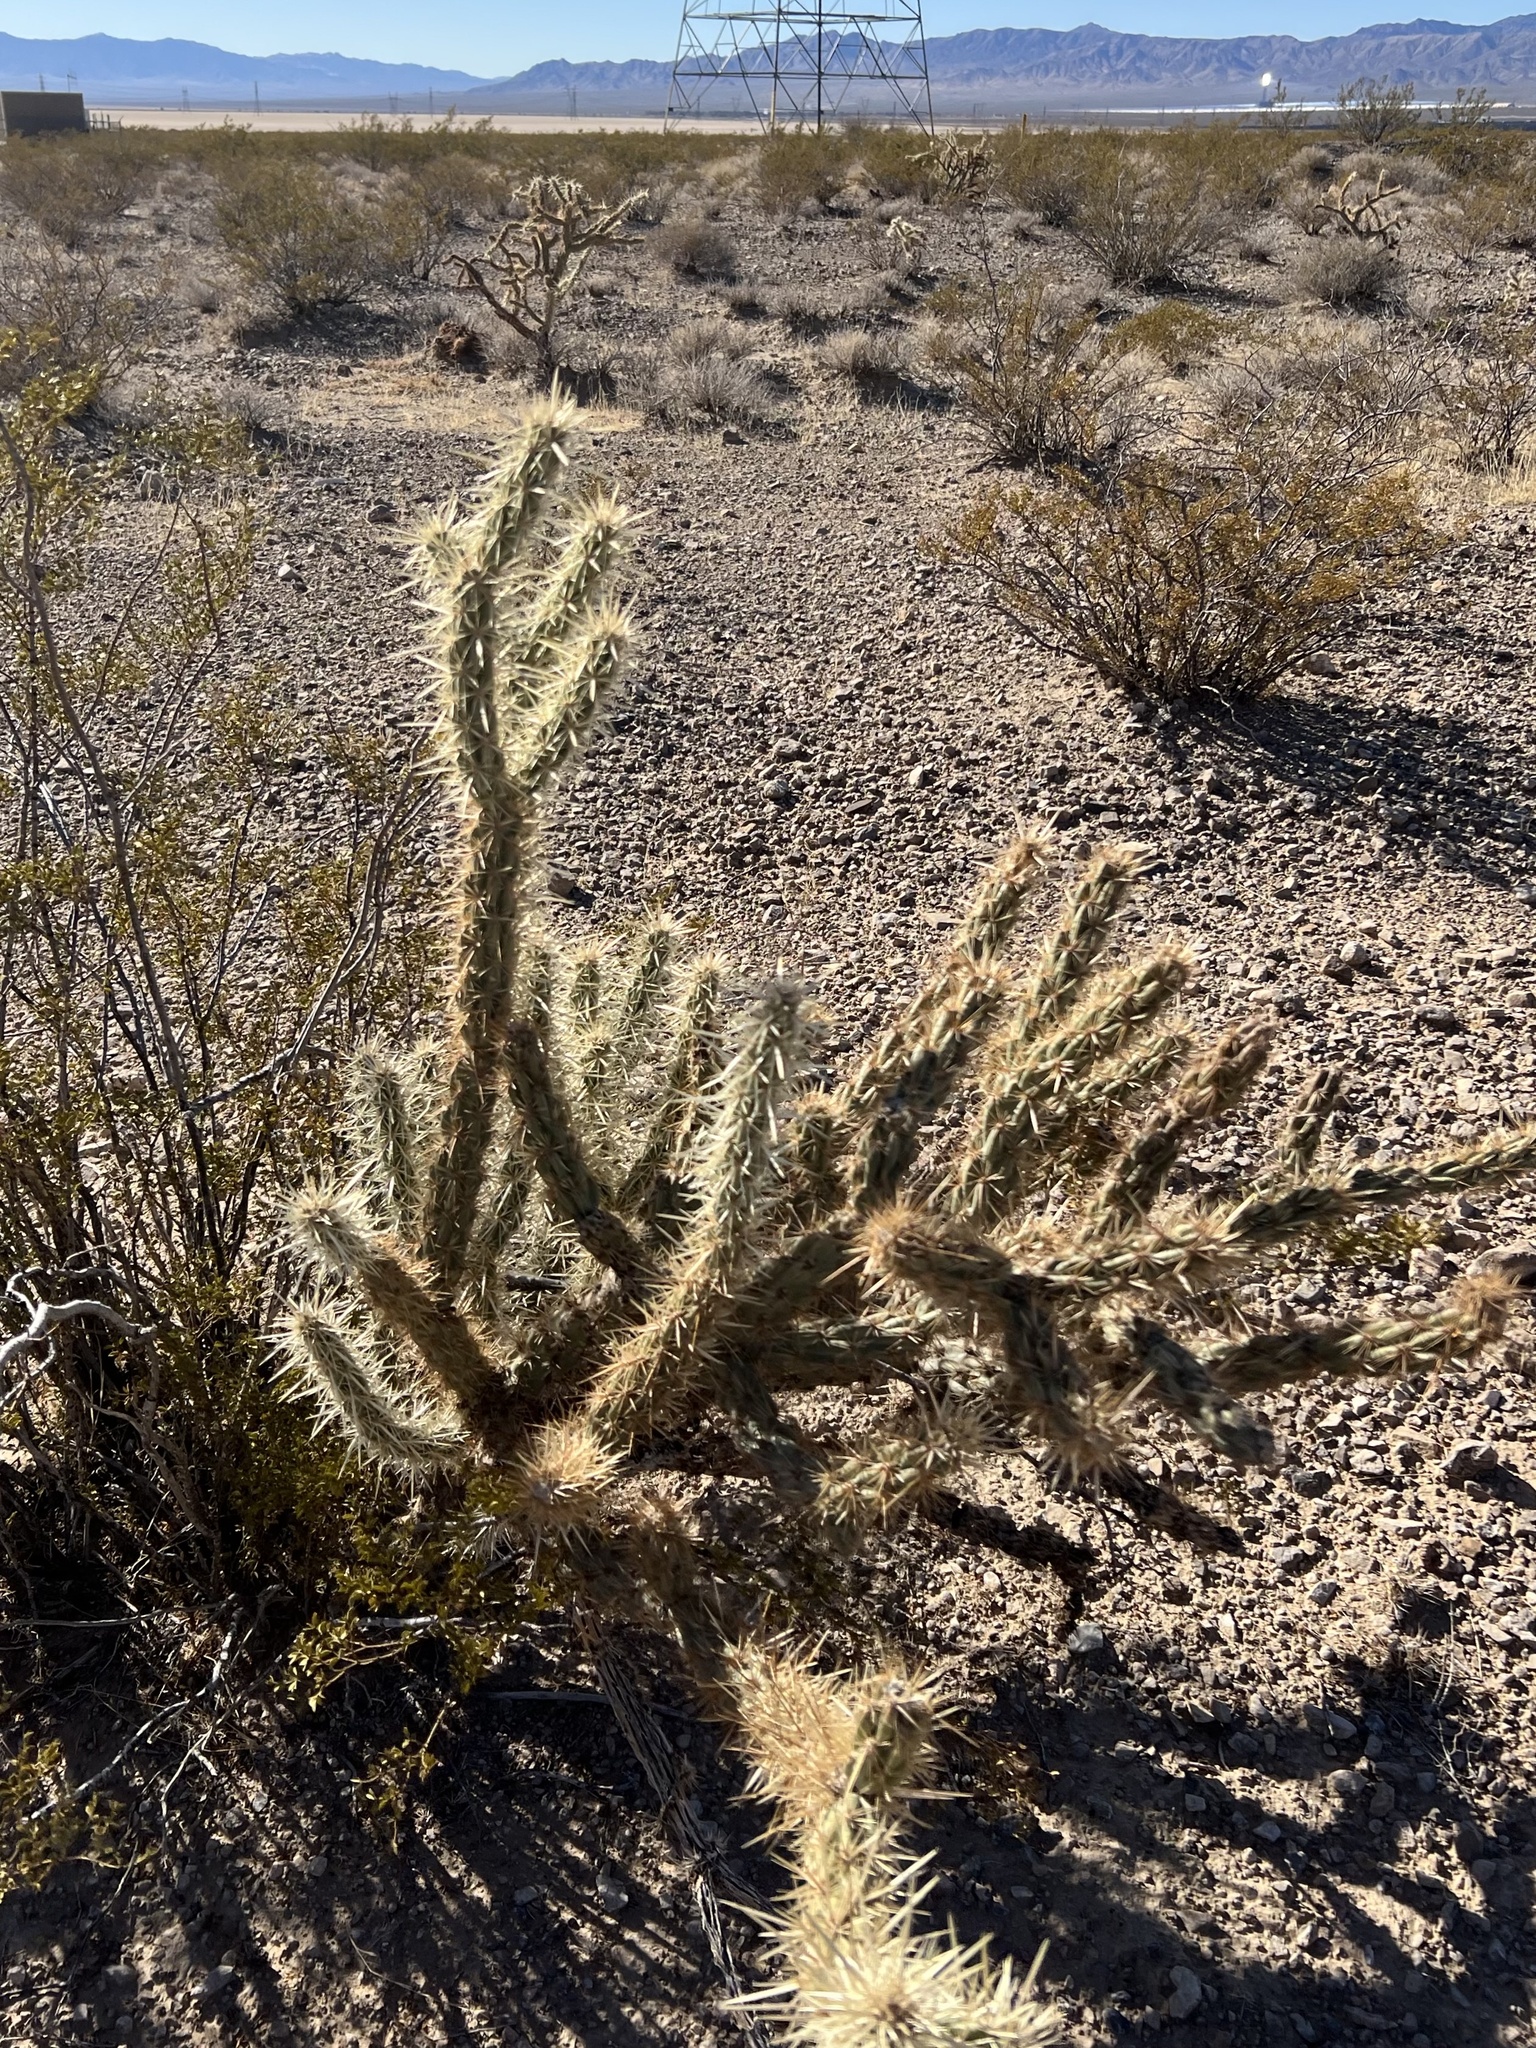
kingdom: Plantae
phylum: Tracheophyta
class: Magnoliopsida
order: Caryophyllales
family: Cactaceae
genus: Cylindropuntia
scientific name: Cylindropuntia acanthocarpa
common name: Buckhorn cholla
